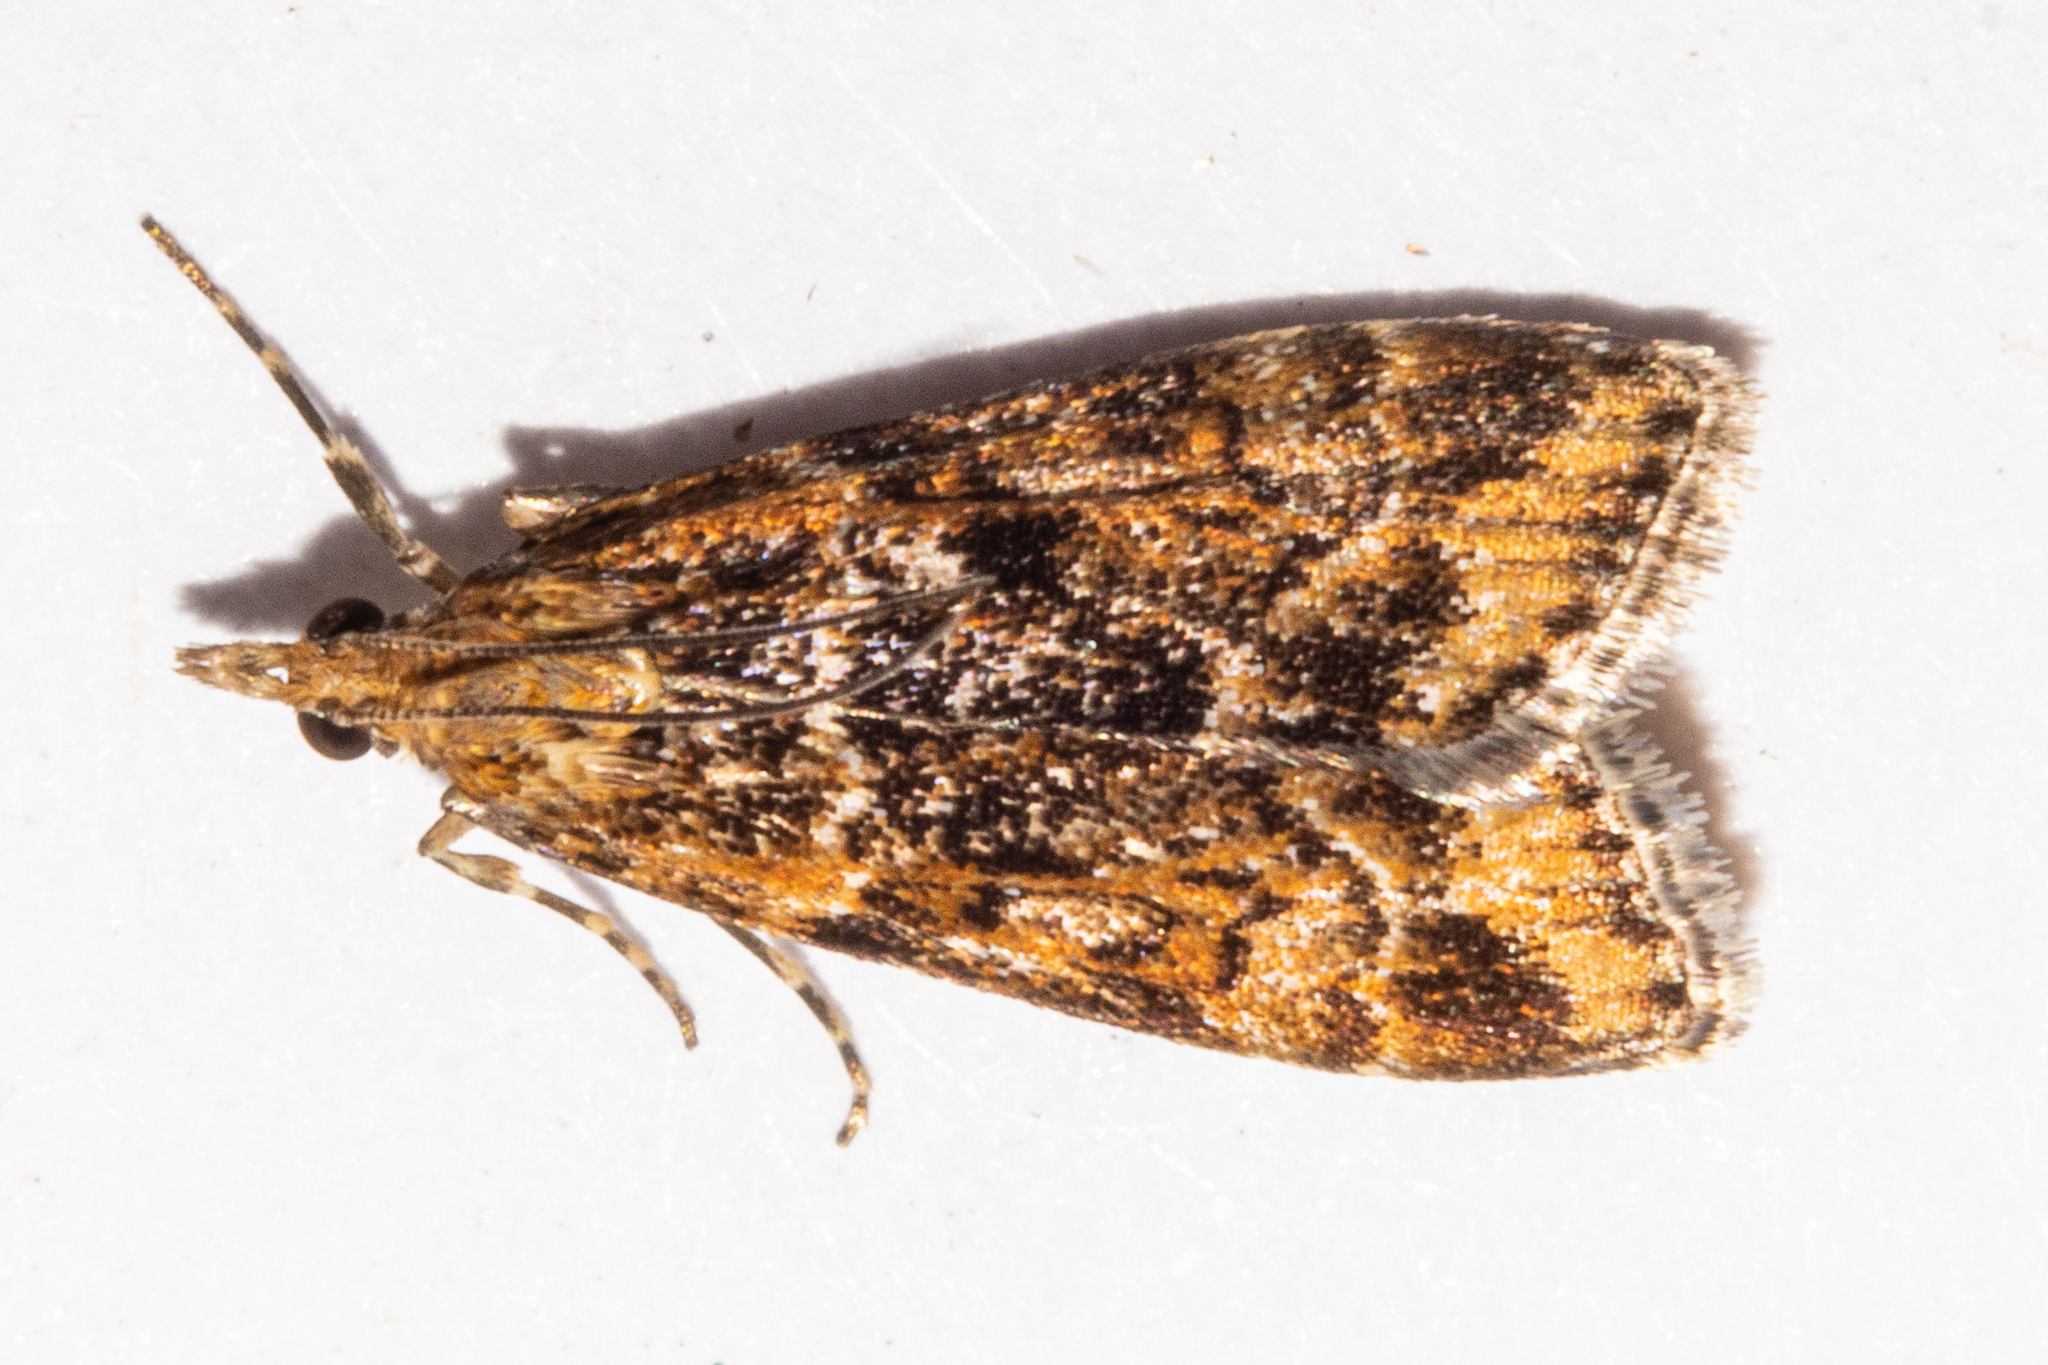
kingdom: Animalia
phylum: Arthropoda
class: Insecta
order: Lepidoptera
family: Crambidae
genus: Scoparia
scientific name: Scoparia animosa
